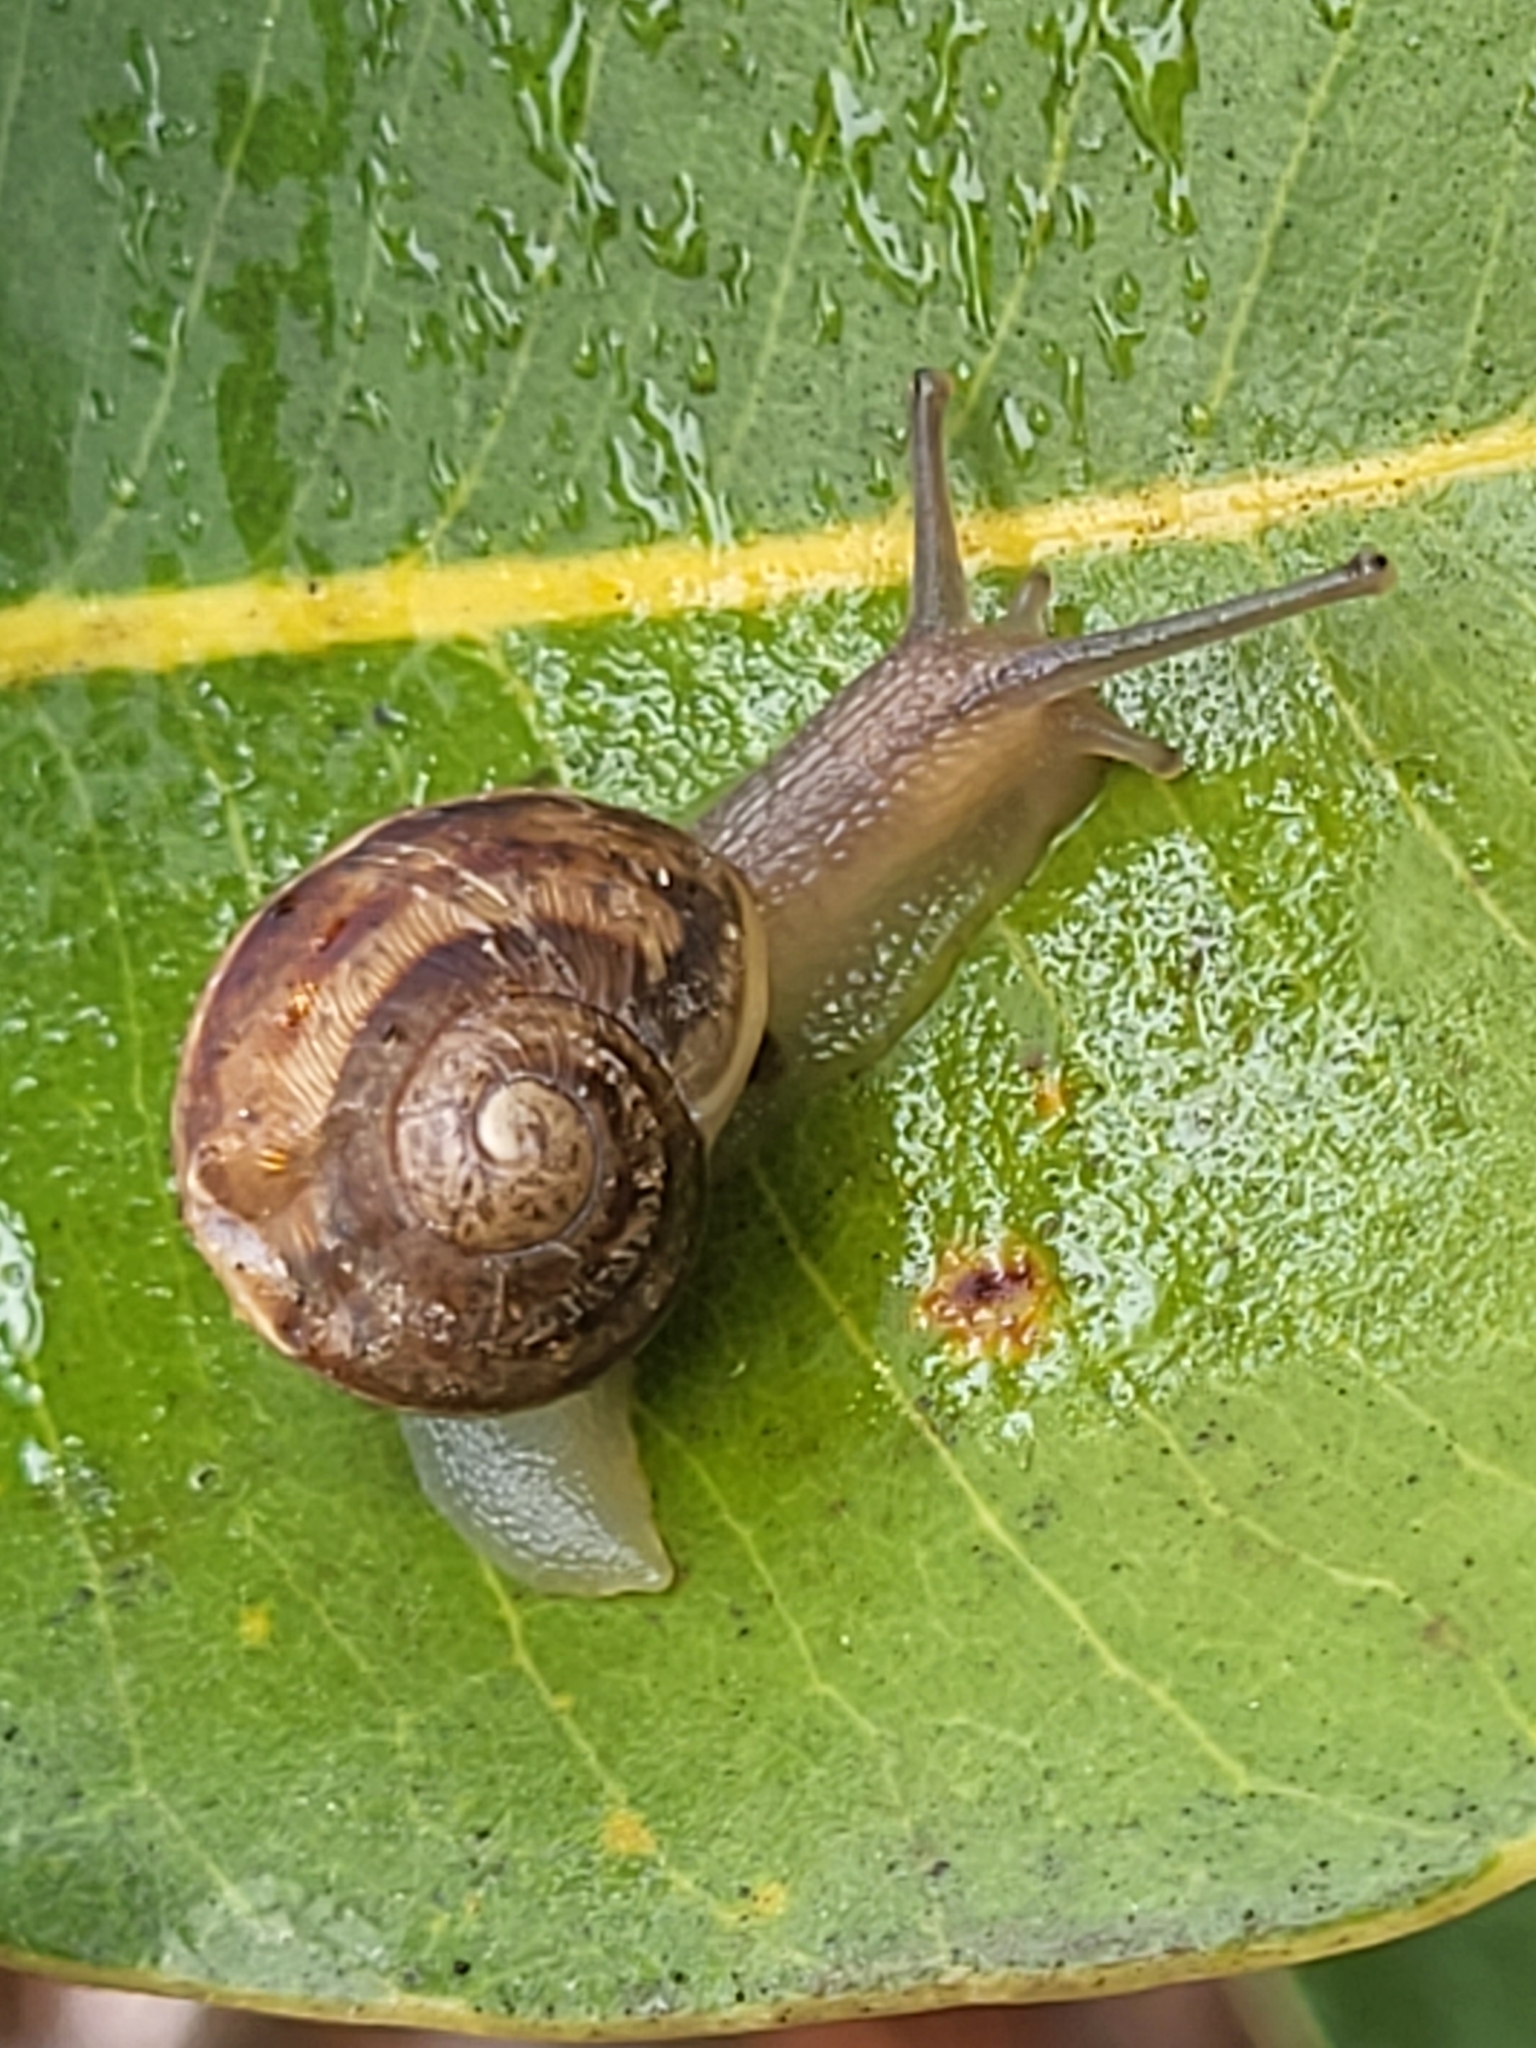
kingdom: Animalia
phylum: Mollusca
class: Gastropoda
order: Stylommatophora
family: Helicidae
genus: Cornu
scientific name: Cornu aspersum
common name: Brown garden snail
